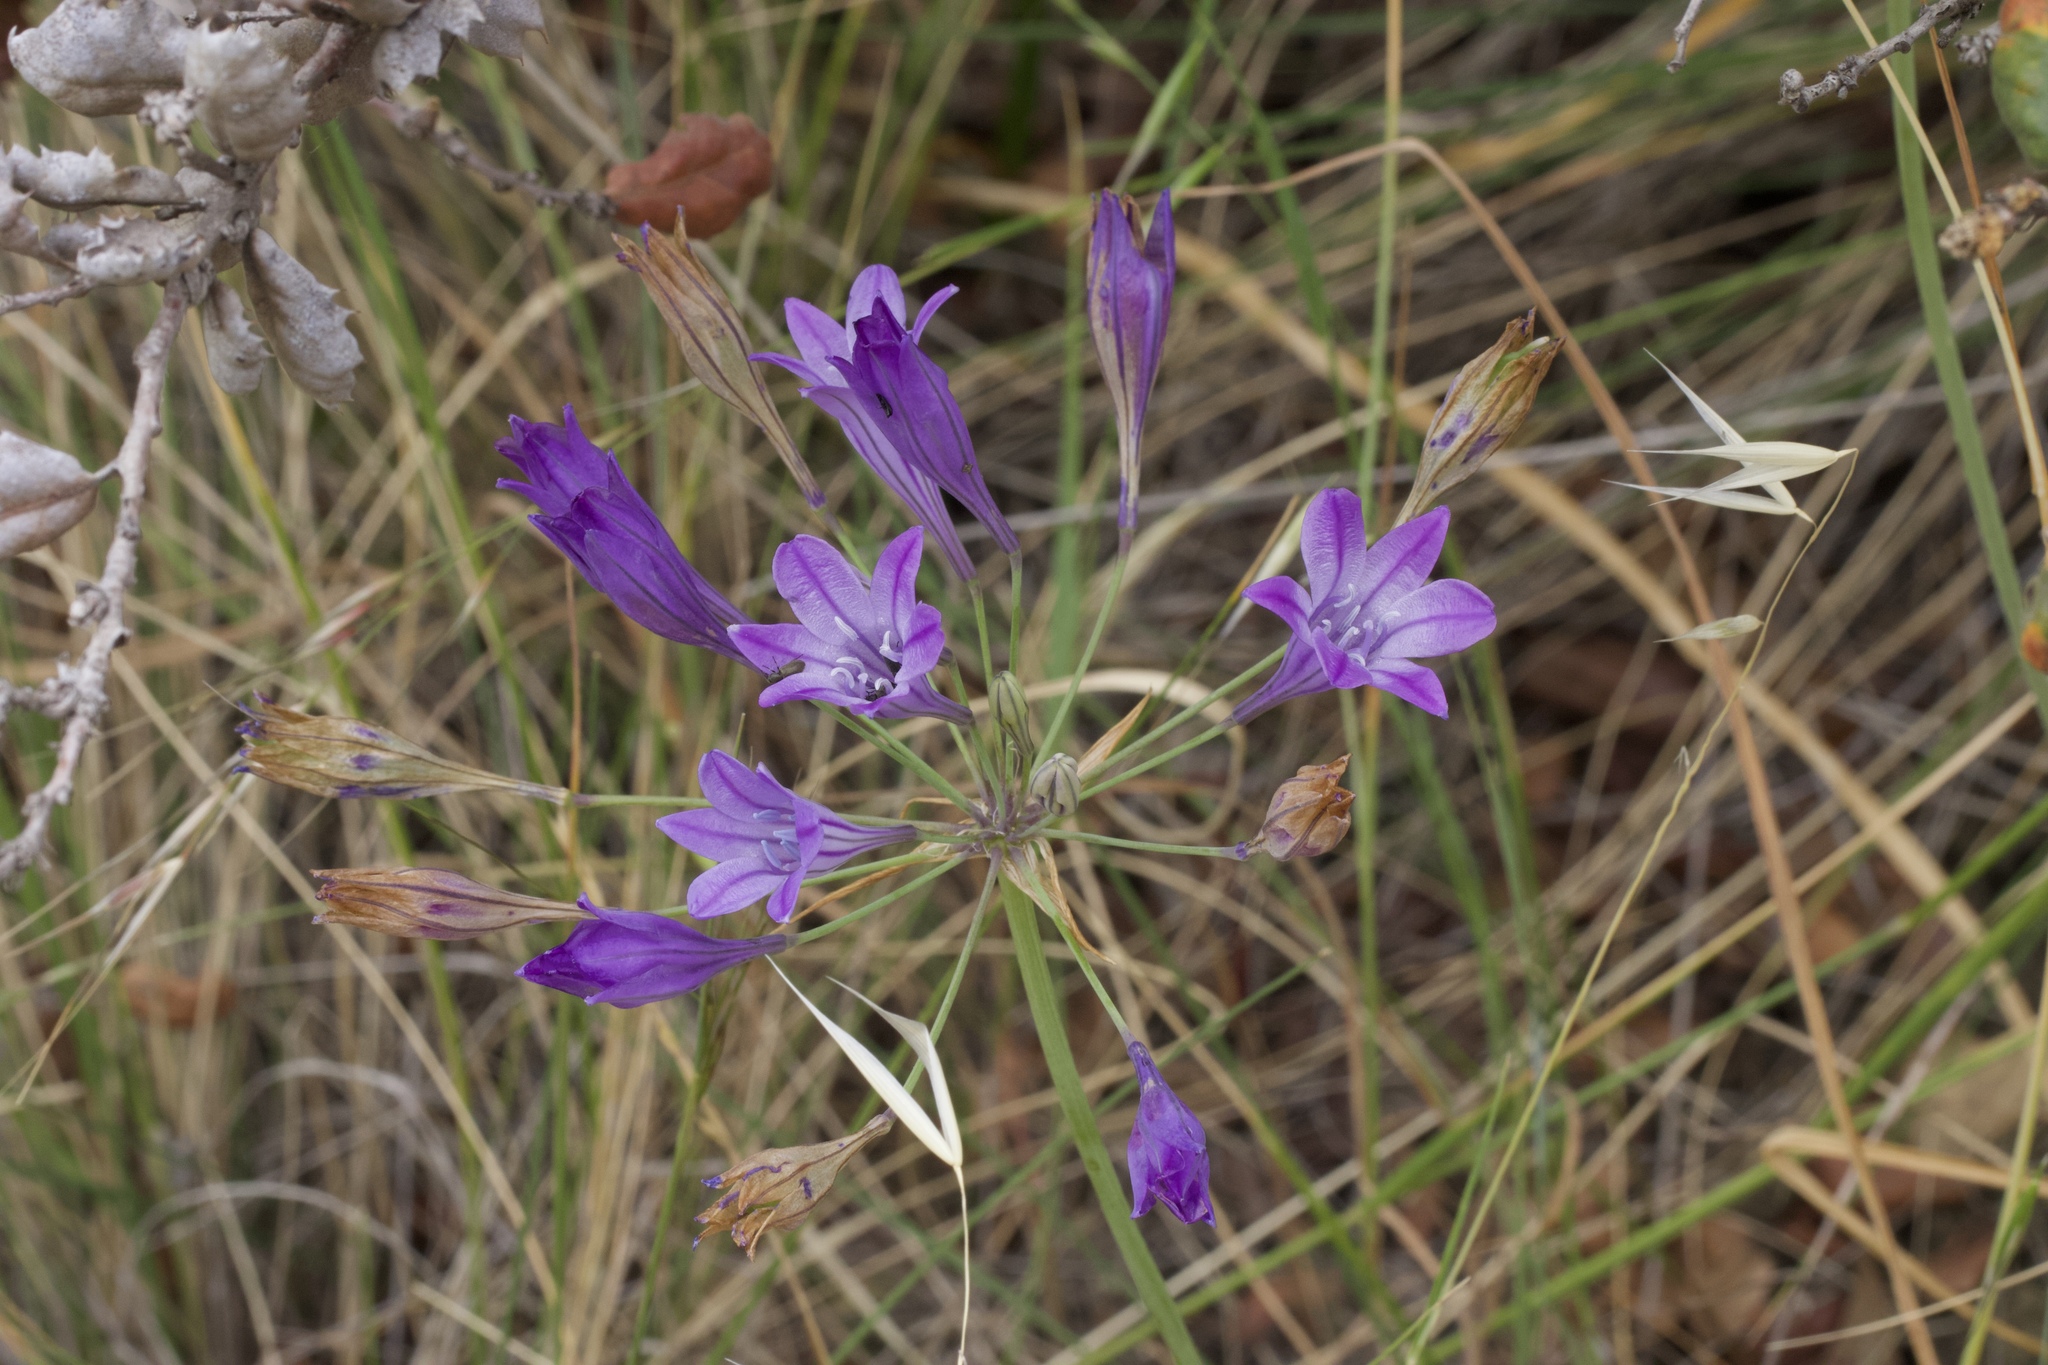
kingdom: Plantae
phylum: Tracheophyta
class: Liliopsida
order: Asparagales
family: Asparagaceae
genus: Triteleia
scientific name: Triteleia laxa
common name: Triplet-lily
